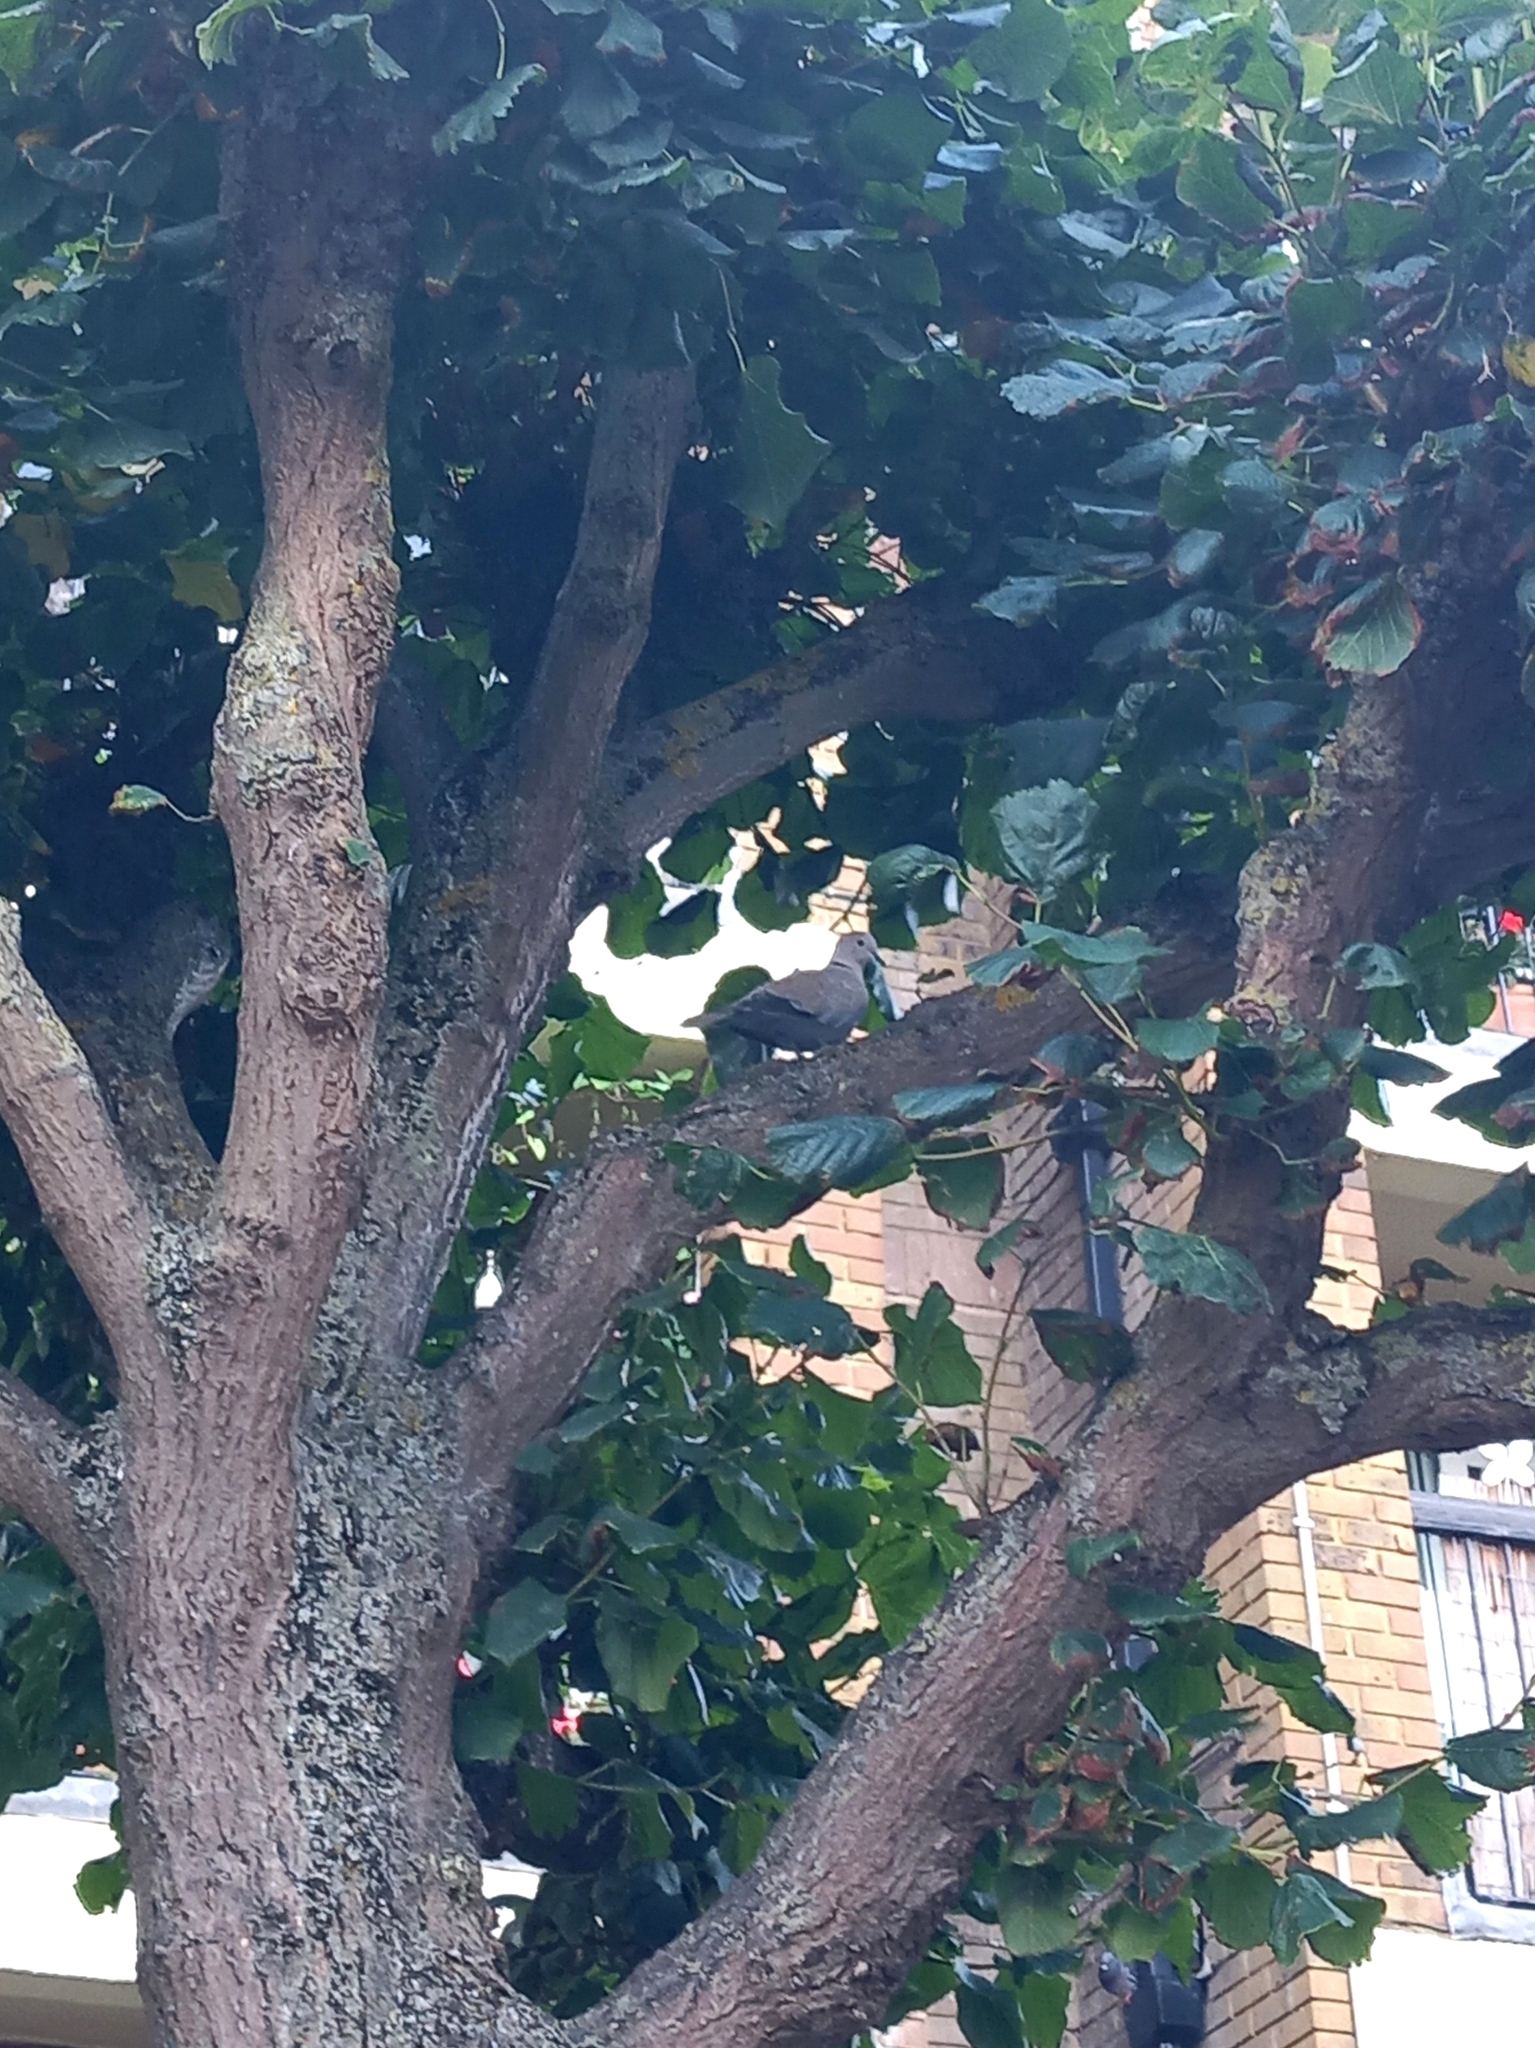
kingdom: Animalia
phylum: Chordata
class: Aves
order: Columbiformes
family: Columbidae
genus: Streptopelia
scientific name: Streptopelia decaocto
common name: Eurasian collared dove
